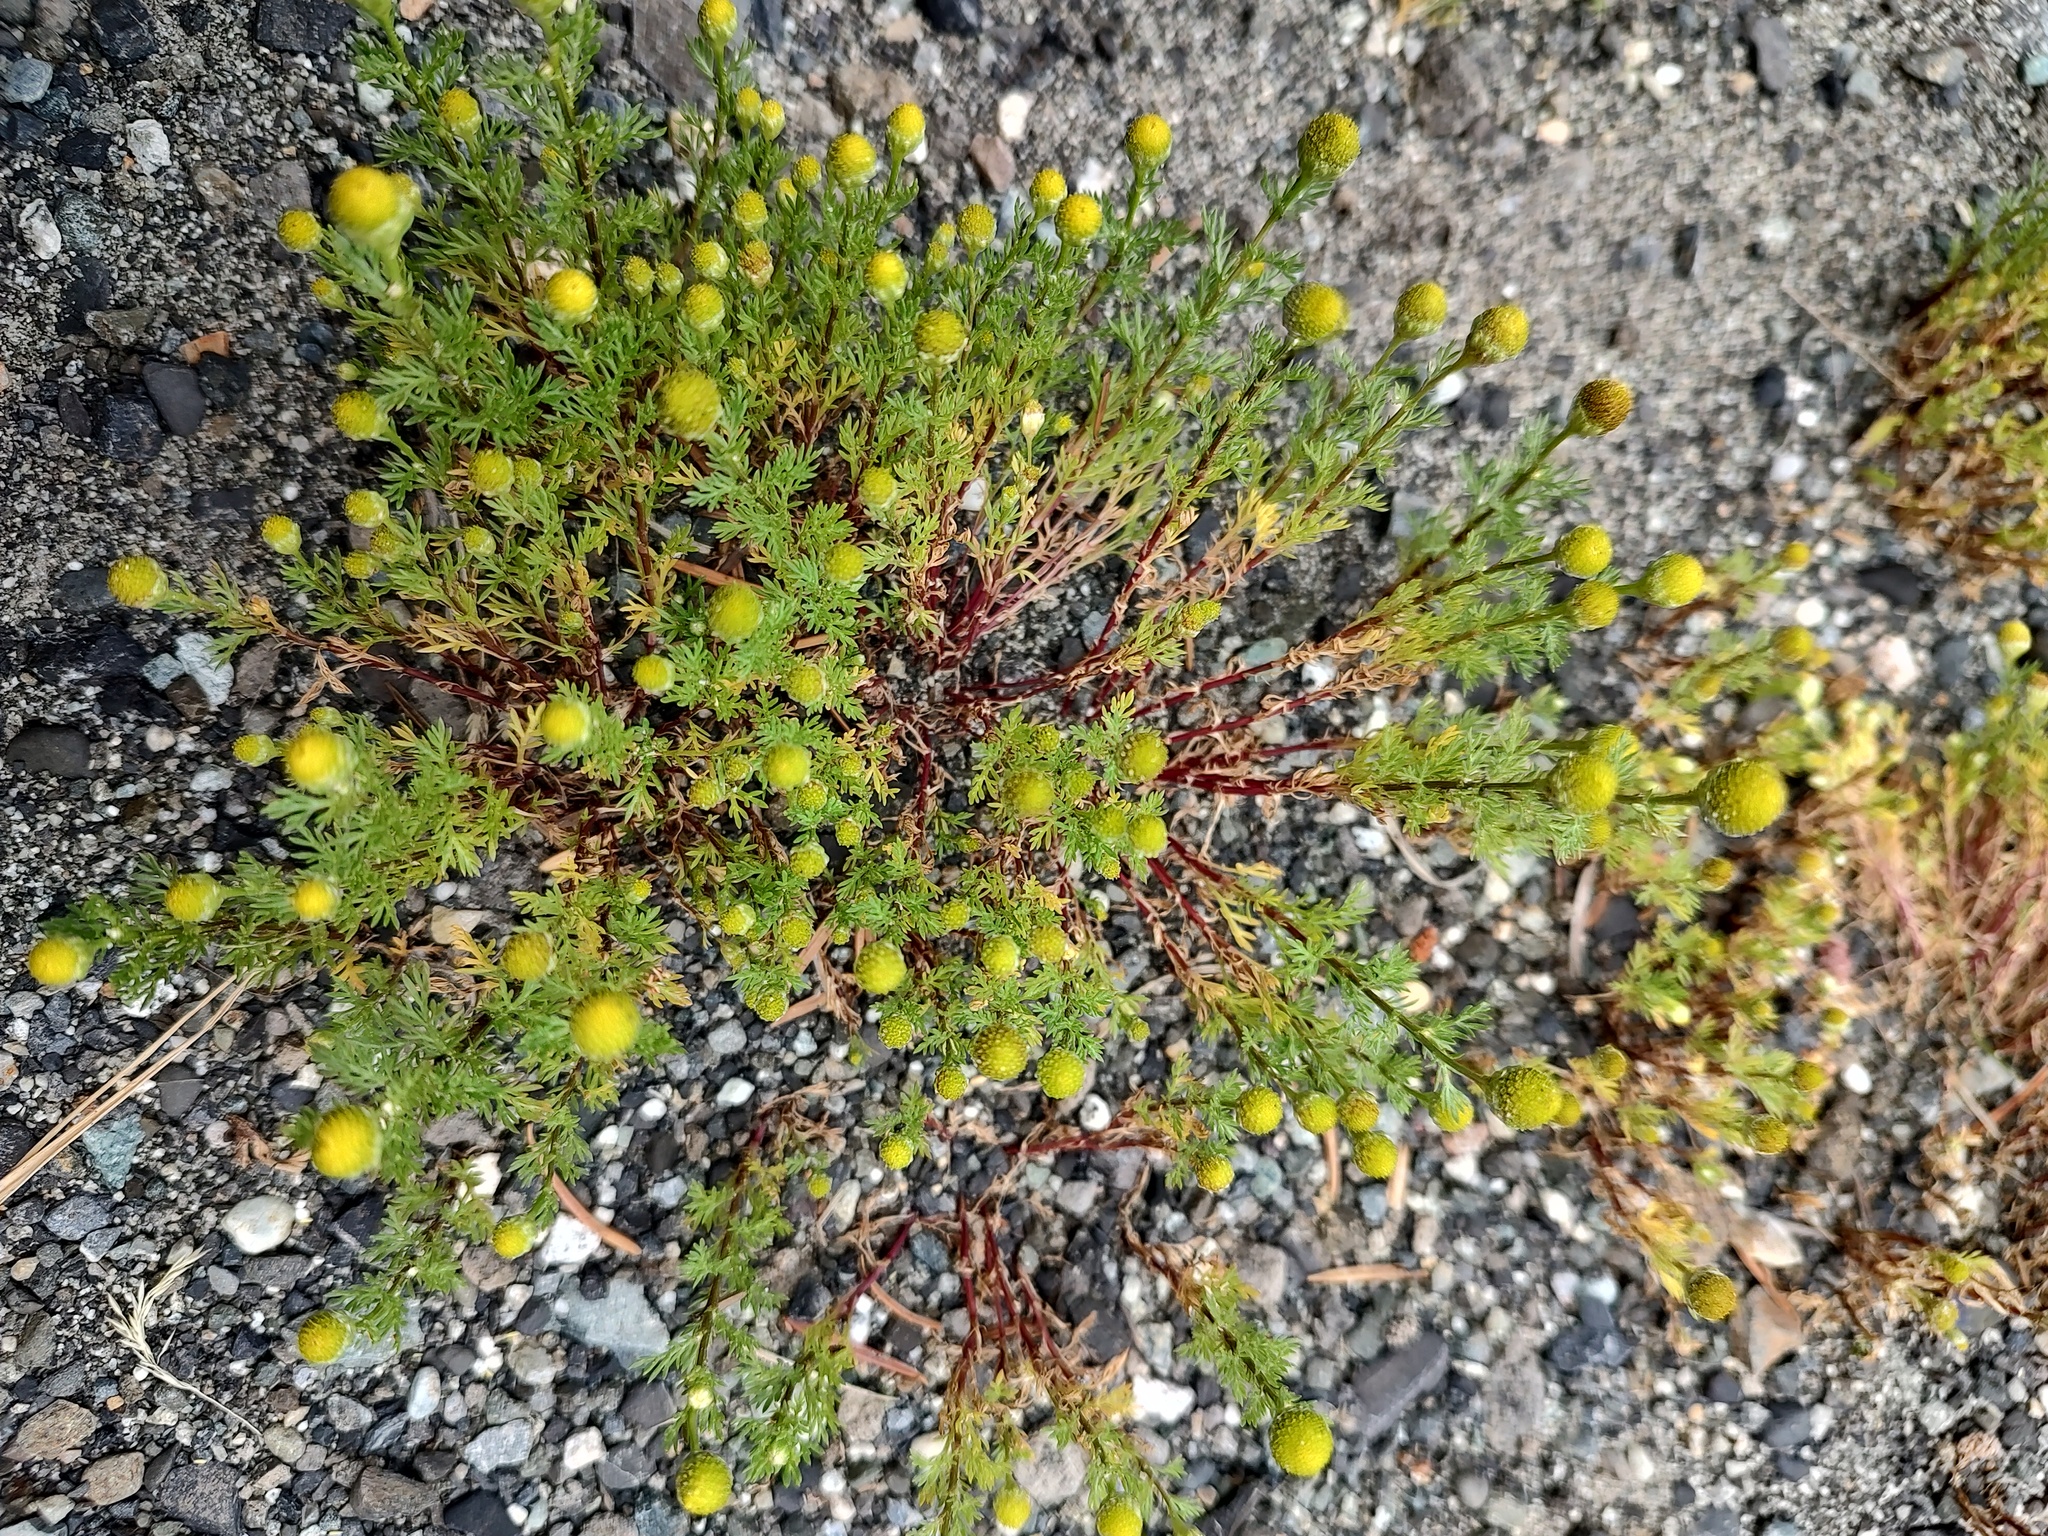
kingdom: Plantae
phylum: Tracheophyta
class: Magnoliopsida
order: Asterales
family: Asteraceae
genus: Matricaria
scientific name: Matricaria discoidea
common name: Disc mayweed
